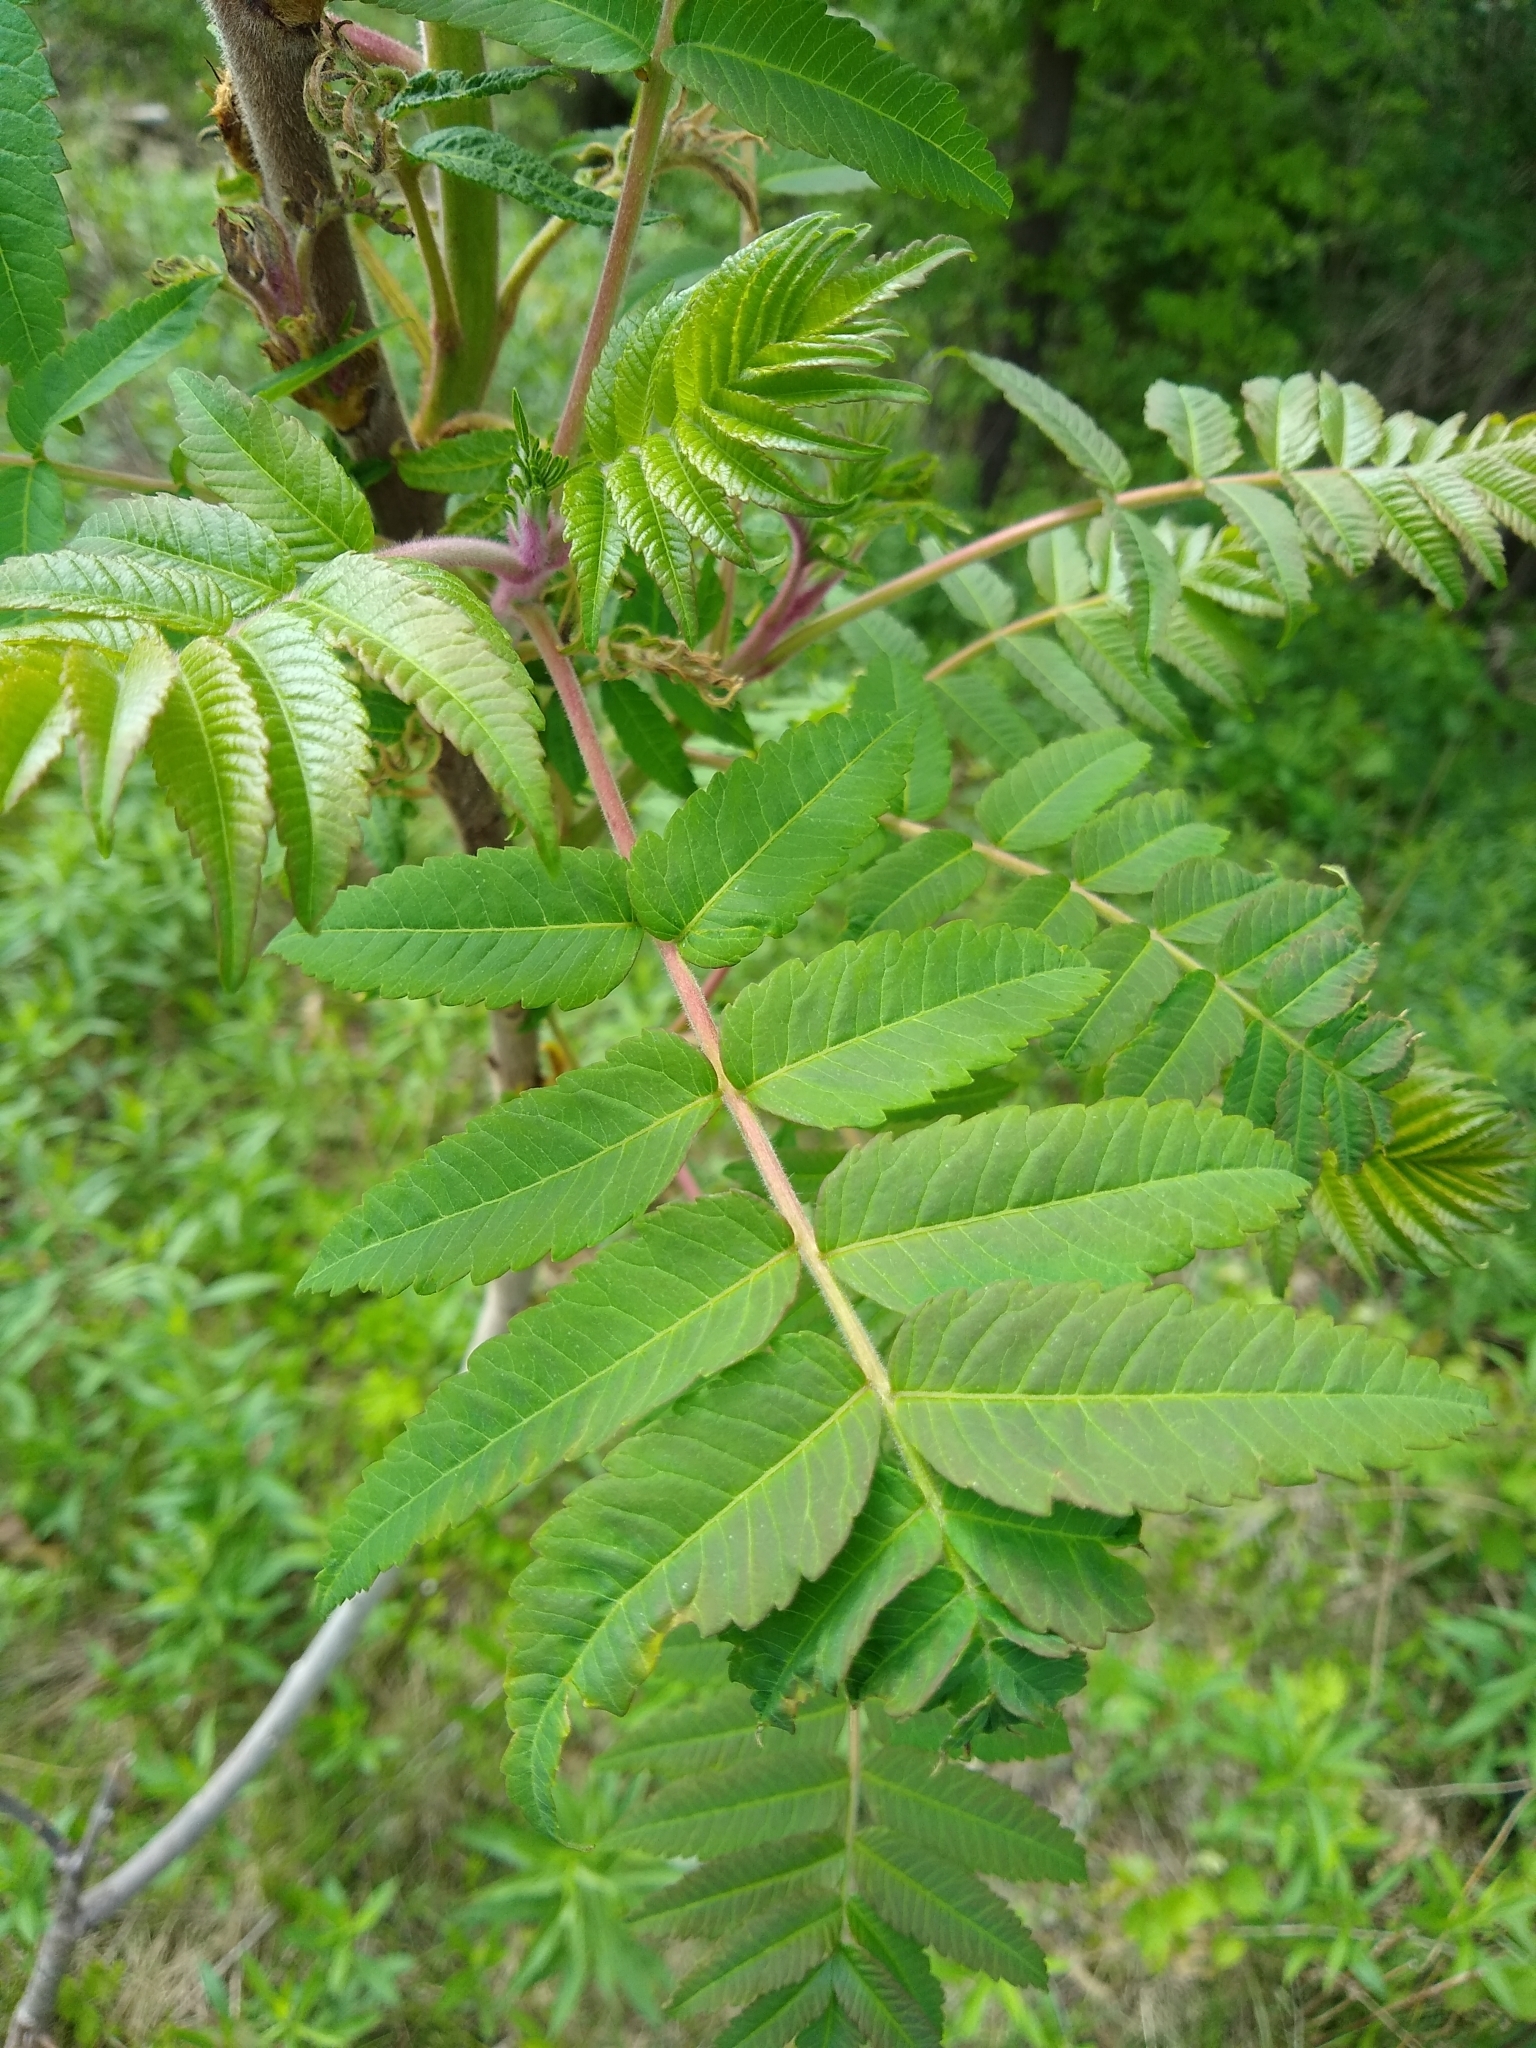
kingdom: Plantae
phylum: Tracheophyta
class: Magnoliopsida
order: Sapindales
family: Anacardiaceae
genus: Rhus
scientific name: Rhus typhina
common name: Staghorn sumac
